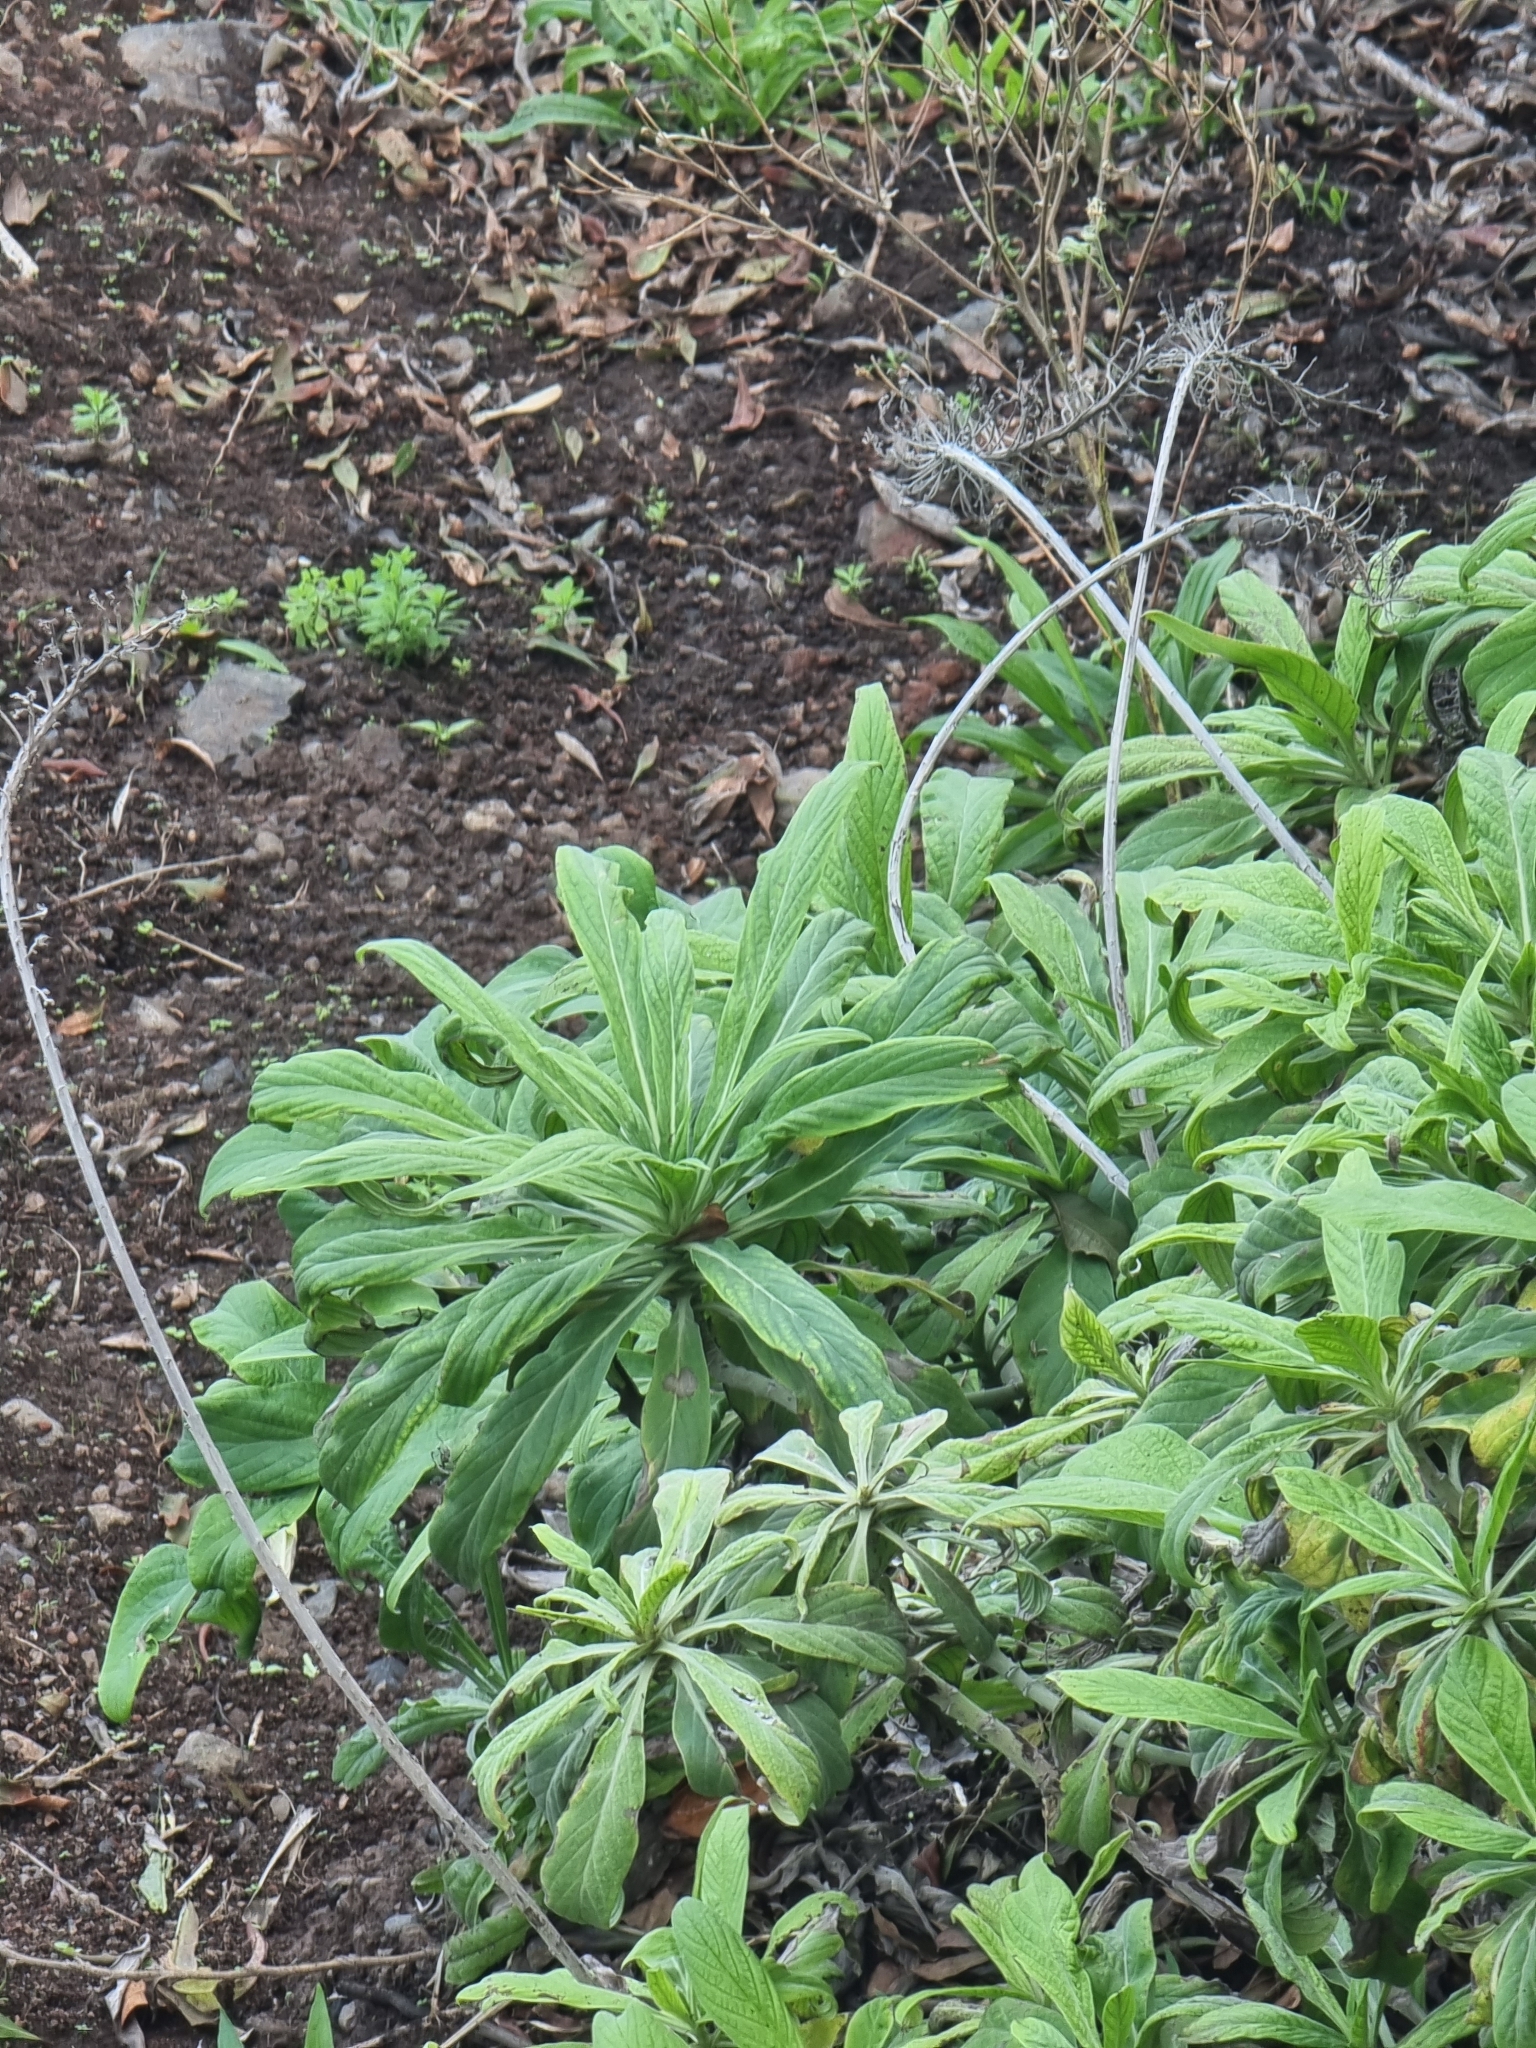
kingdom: Plantae
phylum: Tracheophyta
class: Magnoliopsida
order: Boraginales
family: Boraginaceae
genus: Echium
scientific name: Echium nervosum
